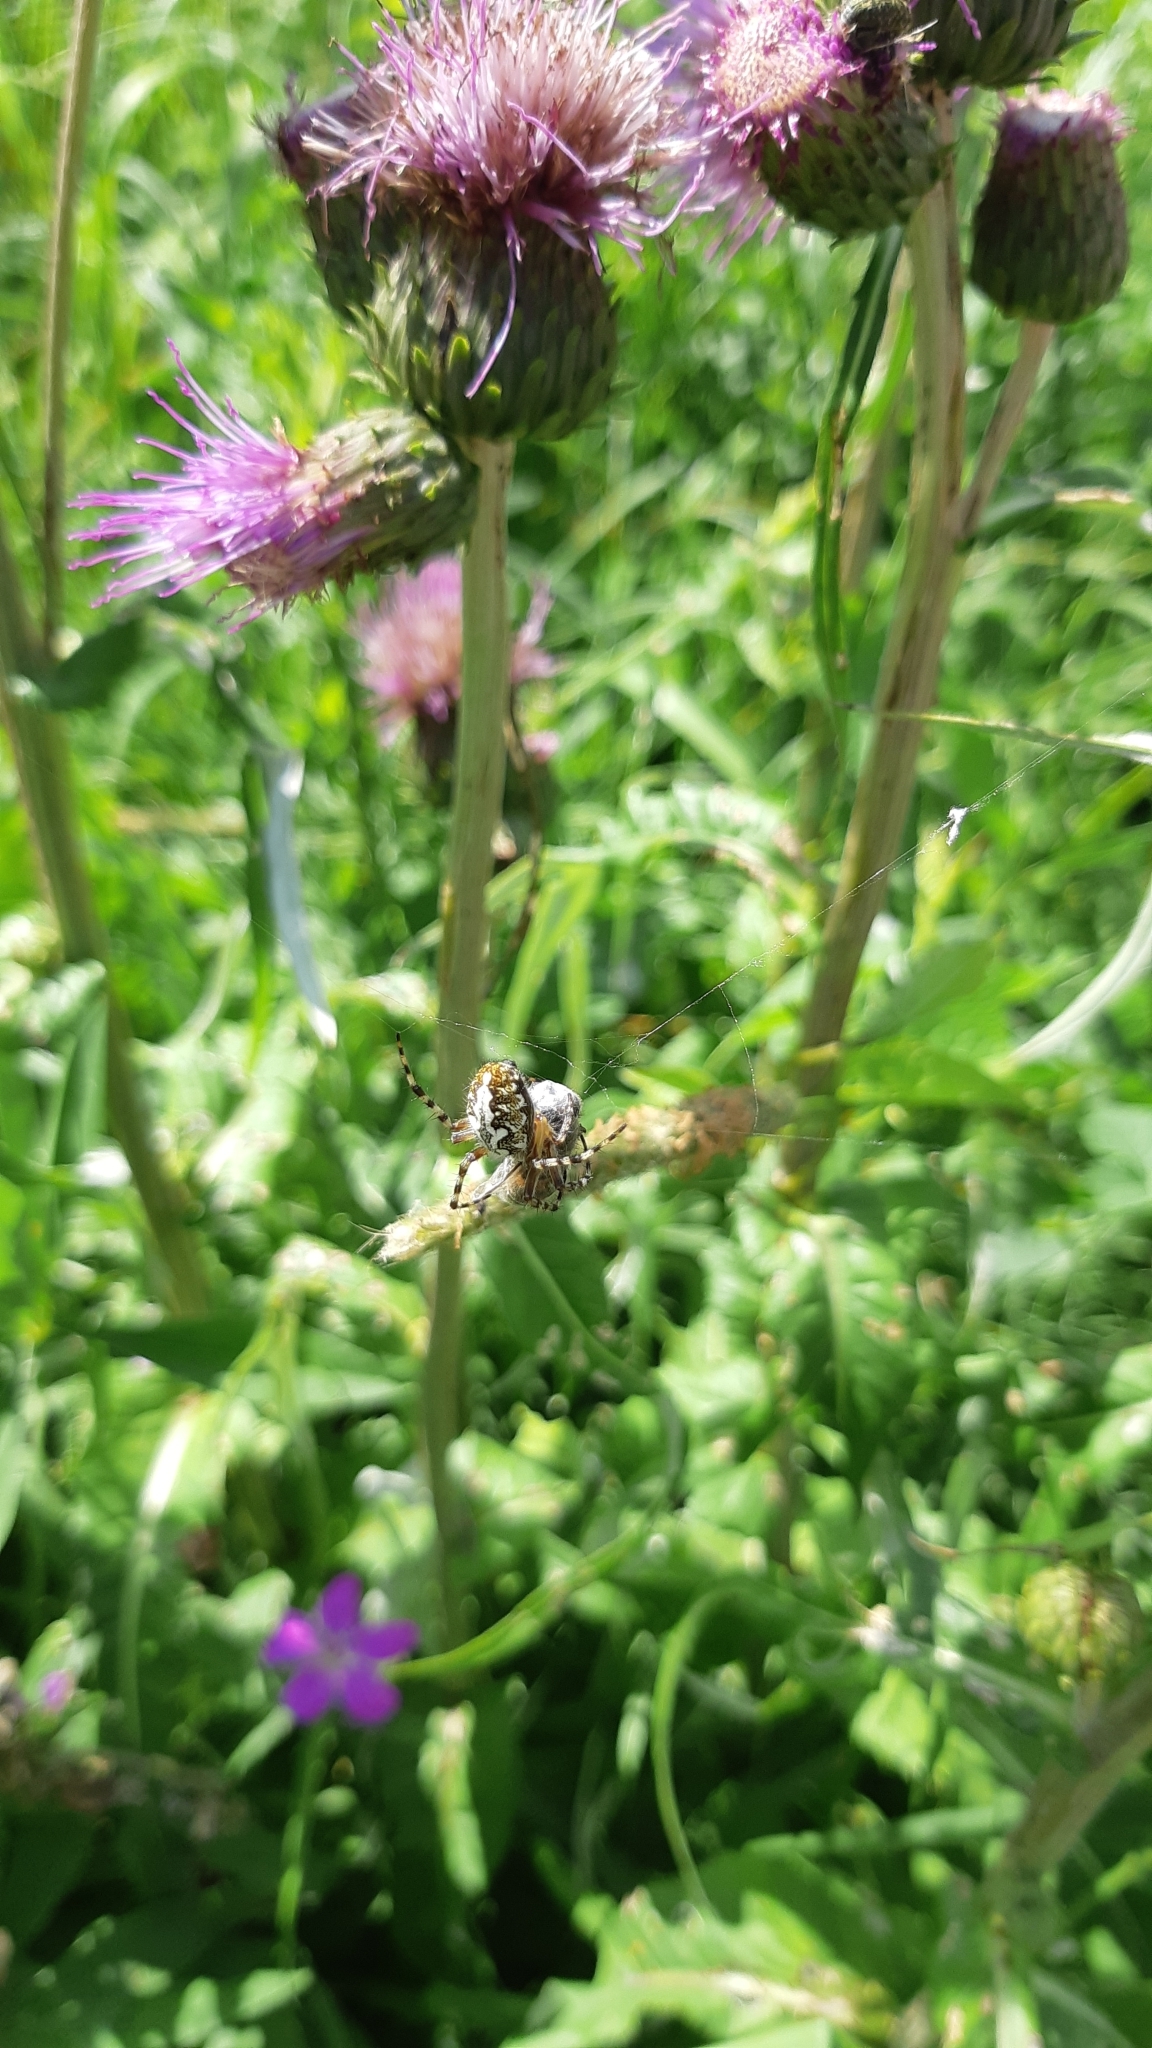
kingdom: Animalia
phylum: Arthropoda
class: Arachnida
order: Araneae
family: Araneidae
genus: Aculepeira
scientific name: Aculepeira ceropegia
